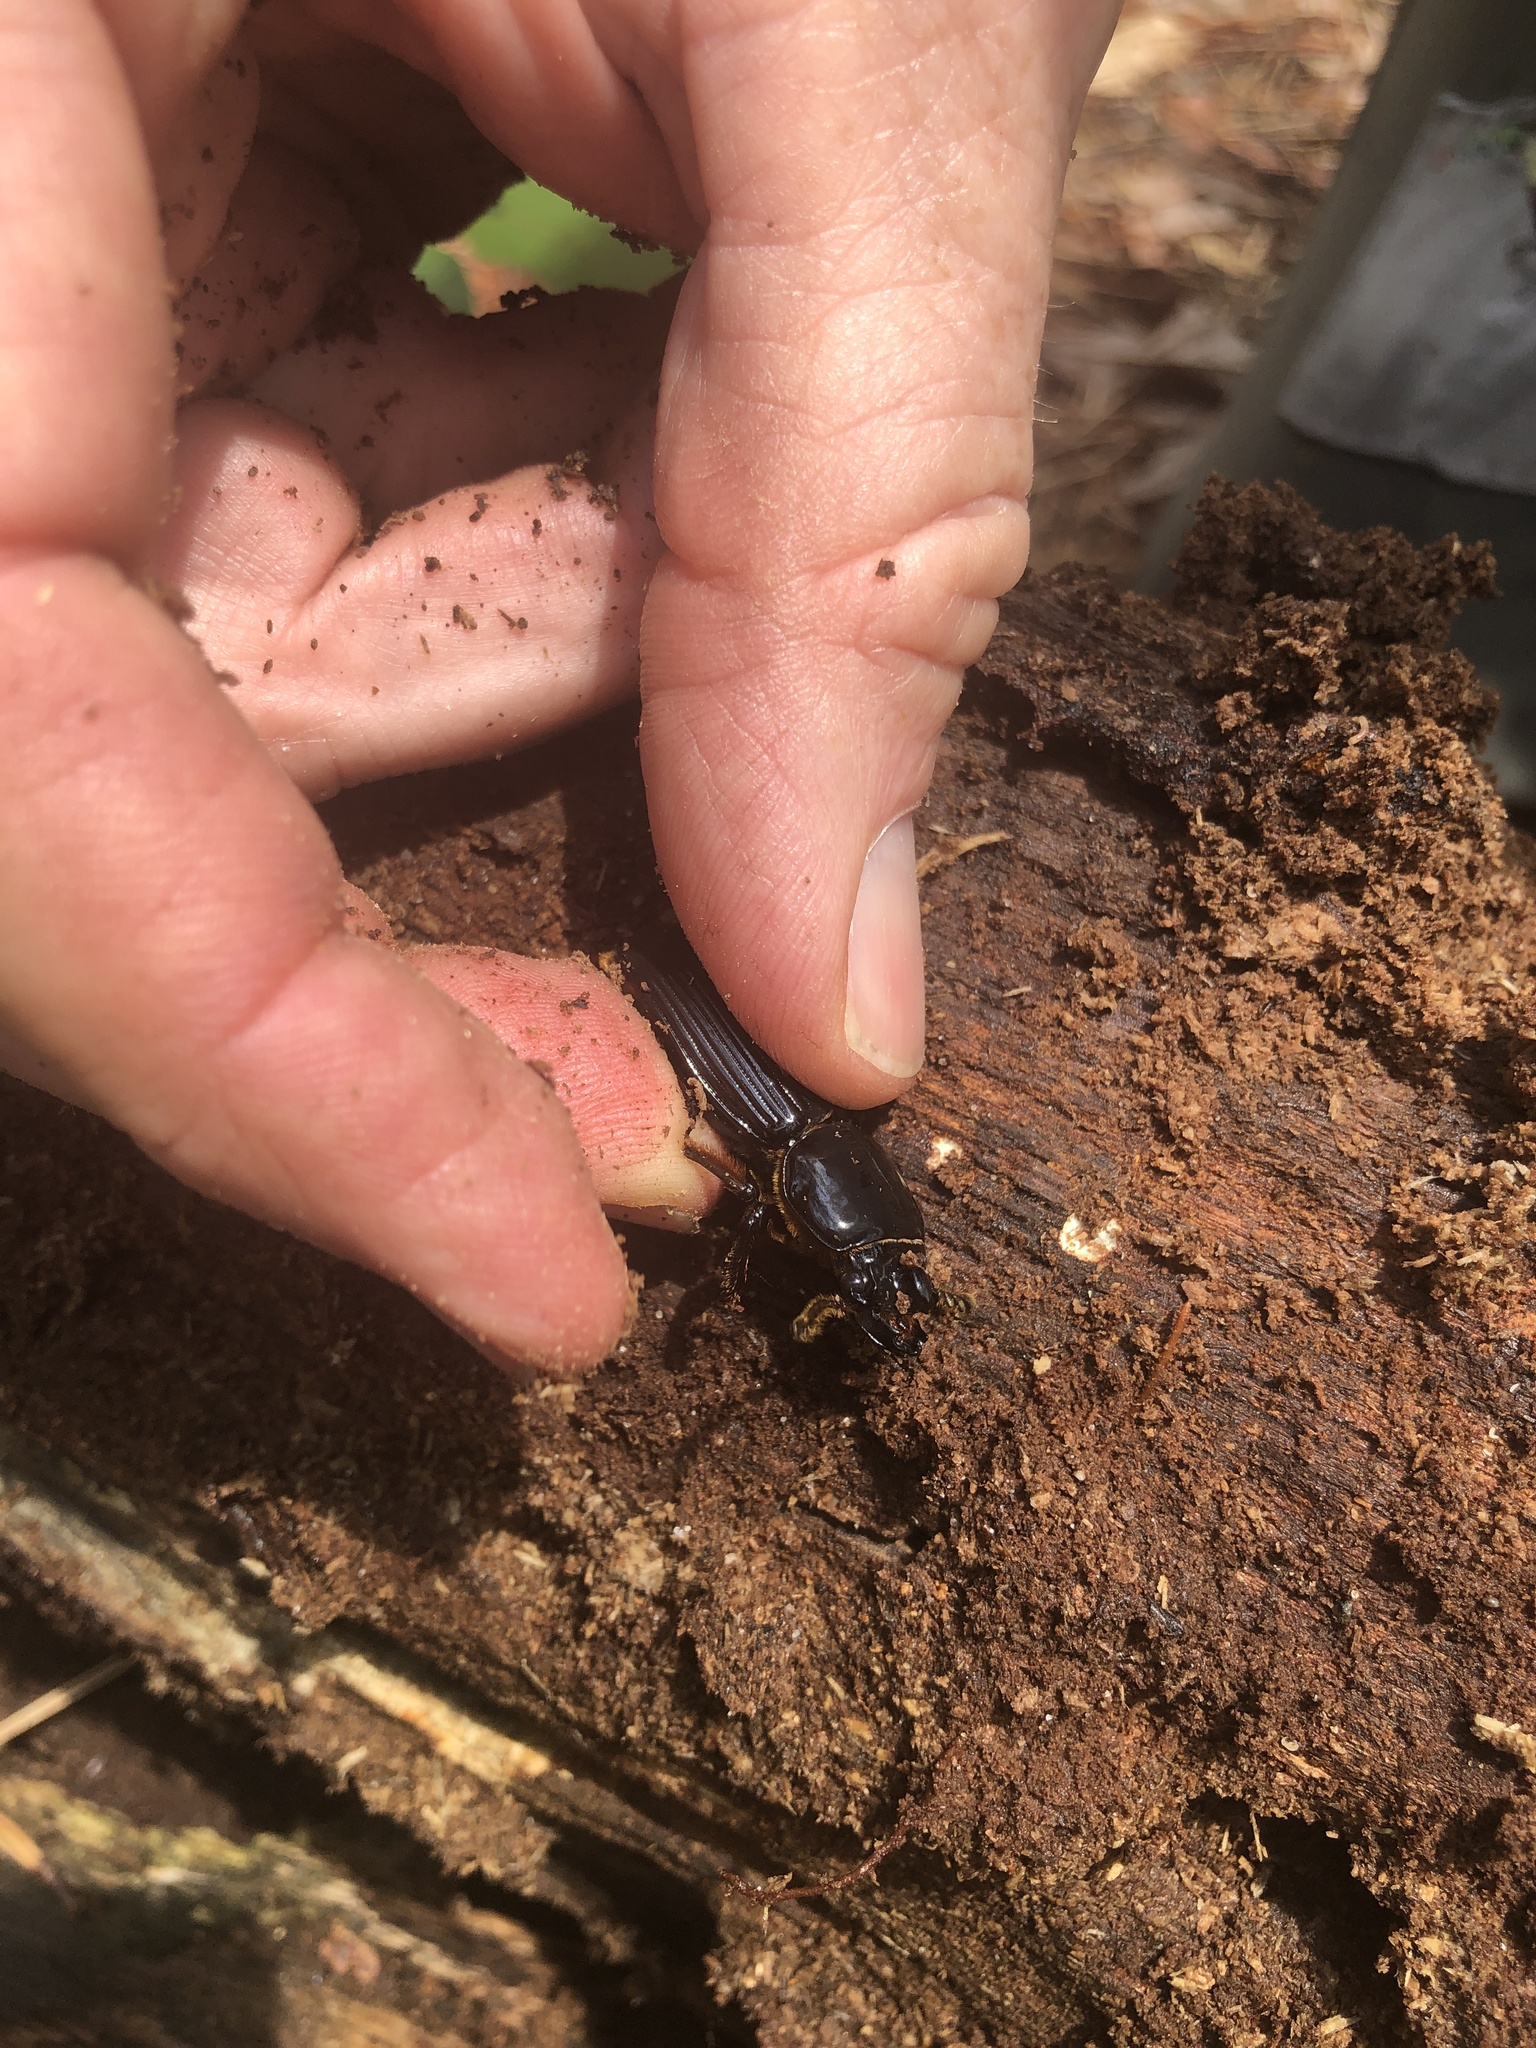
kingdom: Animalia
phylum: Arthropoda
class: Insecta
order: Coleoptera
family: Passalidae
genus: Odontotaenius
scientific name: Odontotaenius disjunctus
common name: Patent leather beetle
